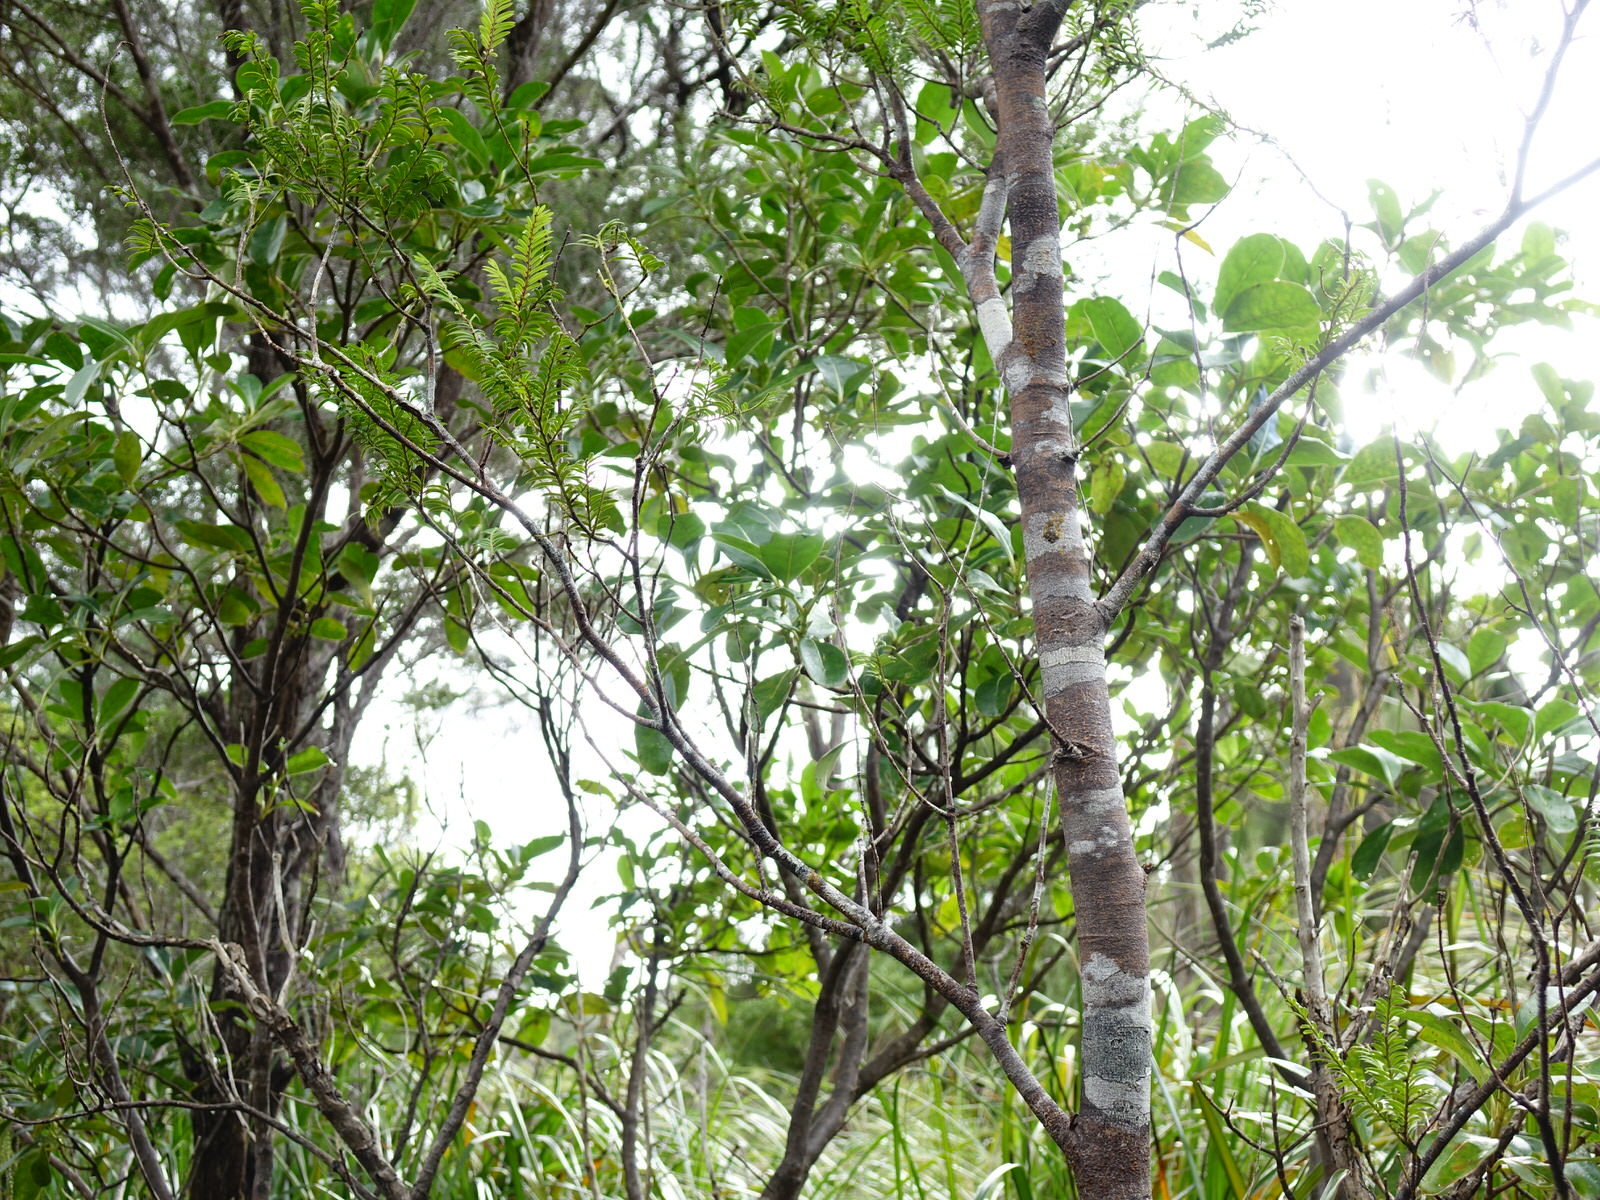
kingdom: Plantae
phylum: Tracheophyta
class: Pinopsida
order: Pinales
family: Podocarpaceae
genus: Prumnopitys
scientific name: Prumnopitys ferruginea
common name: Brown pine
